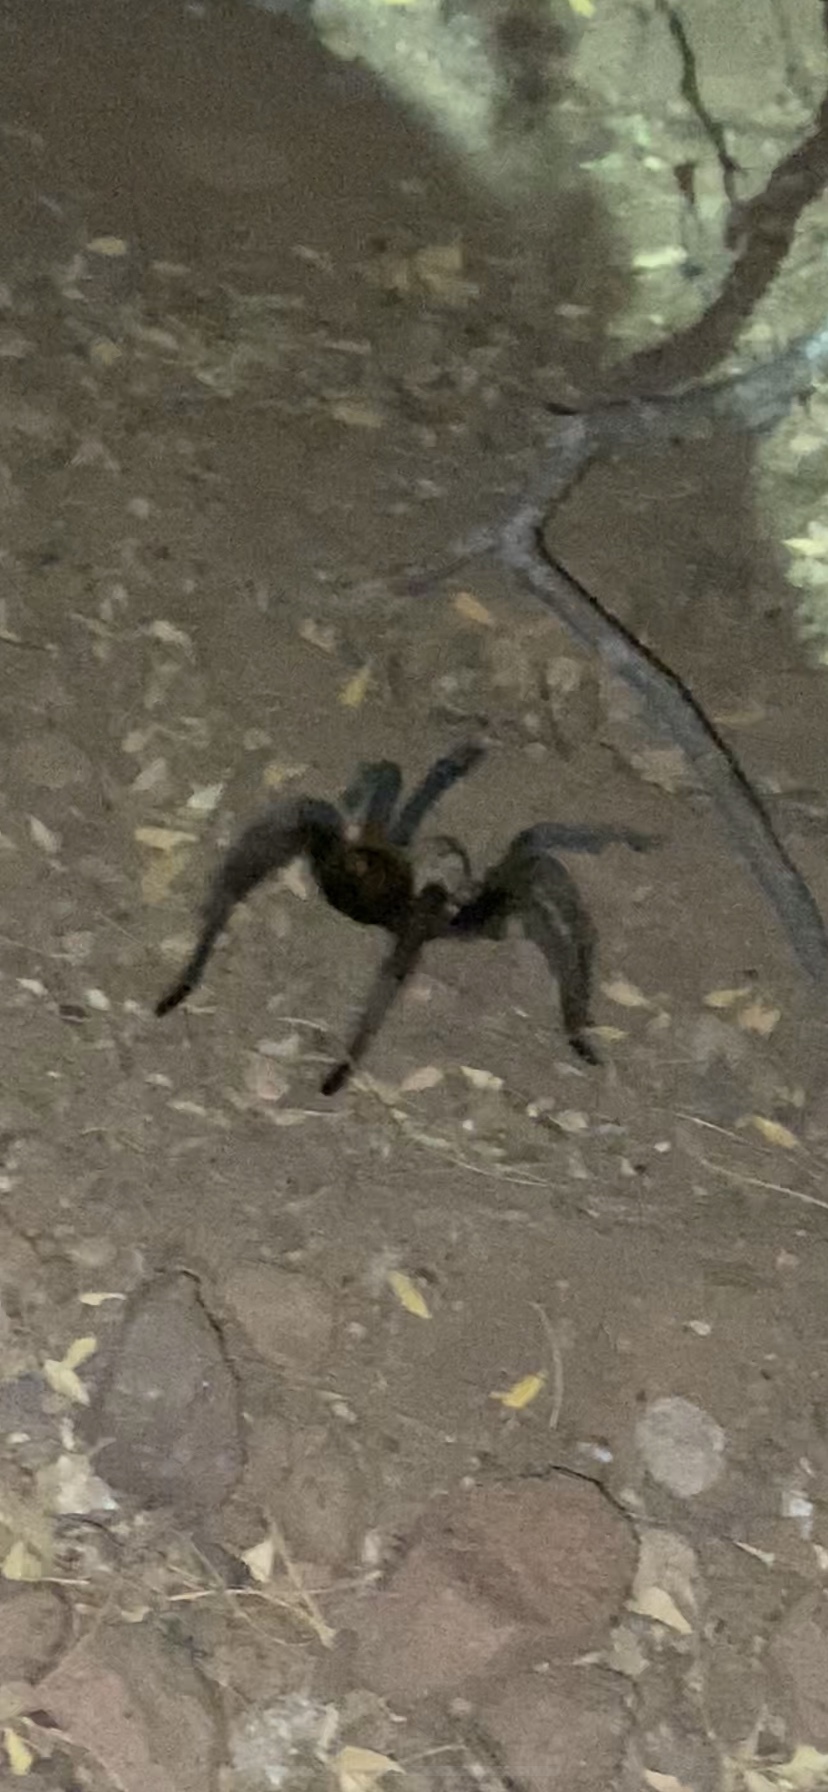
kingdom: Animalia
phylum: Arthropoda
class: Arachnida
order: Araneae
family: Theraphosidae
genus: Aphonopelma
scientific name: Aphonopelma chalcodes
